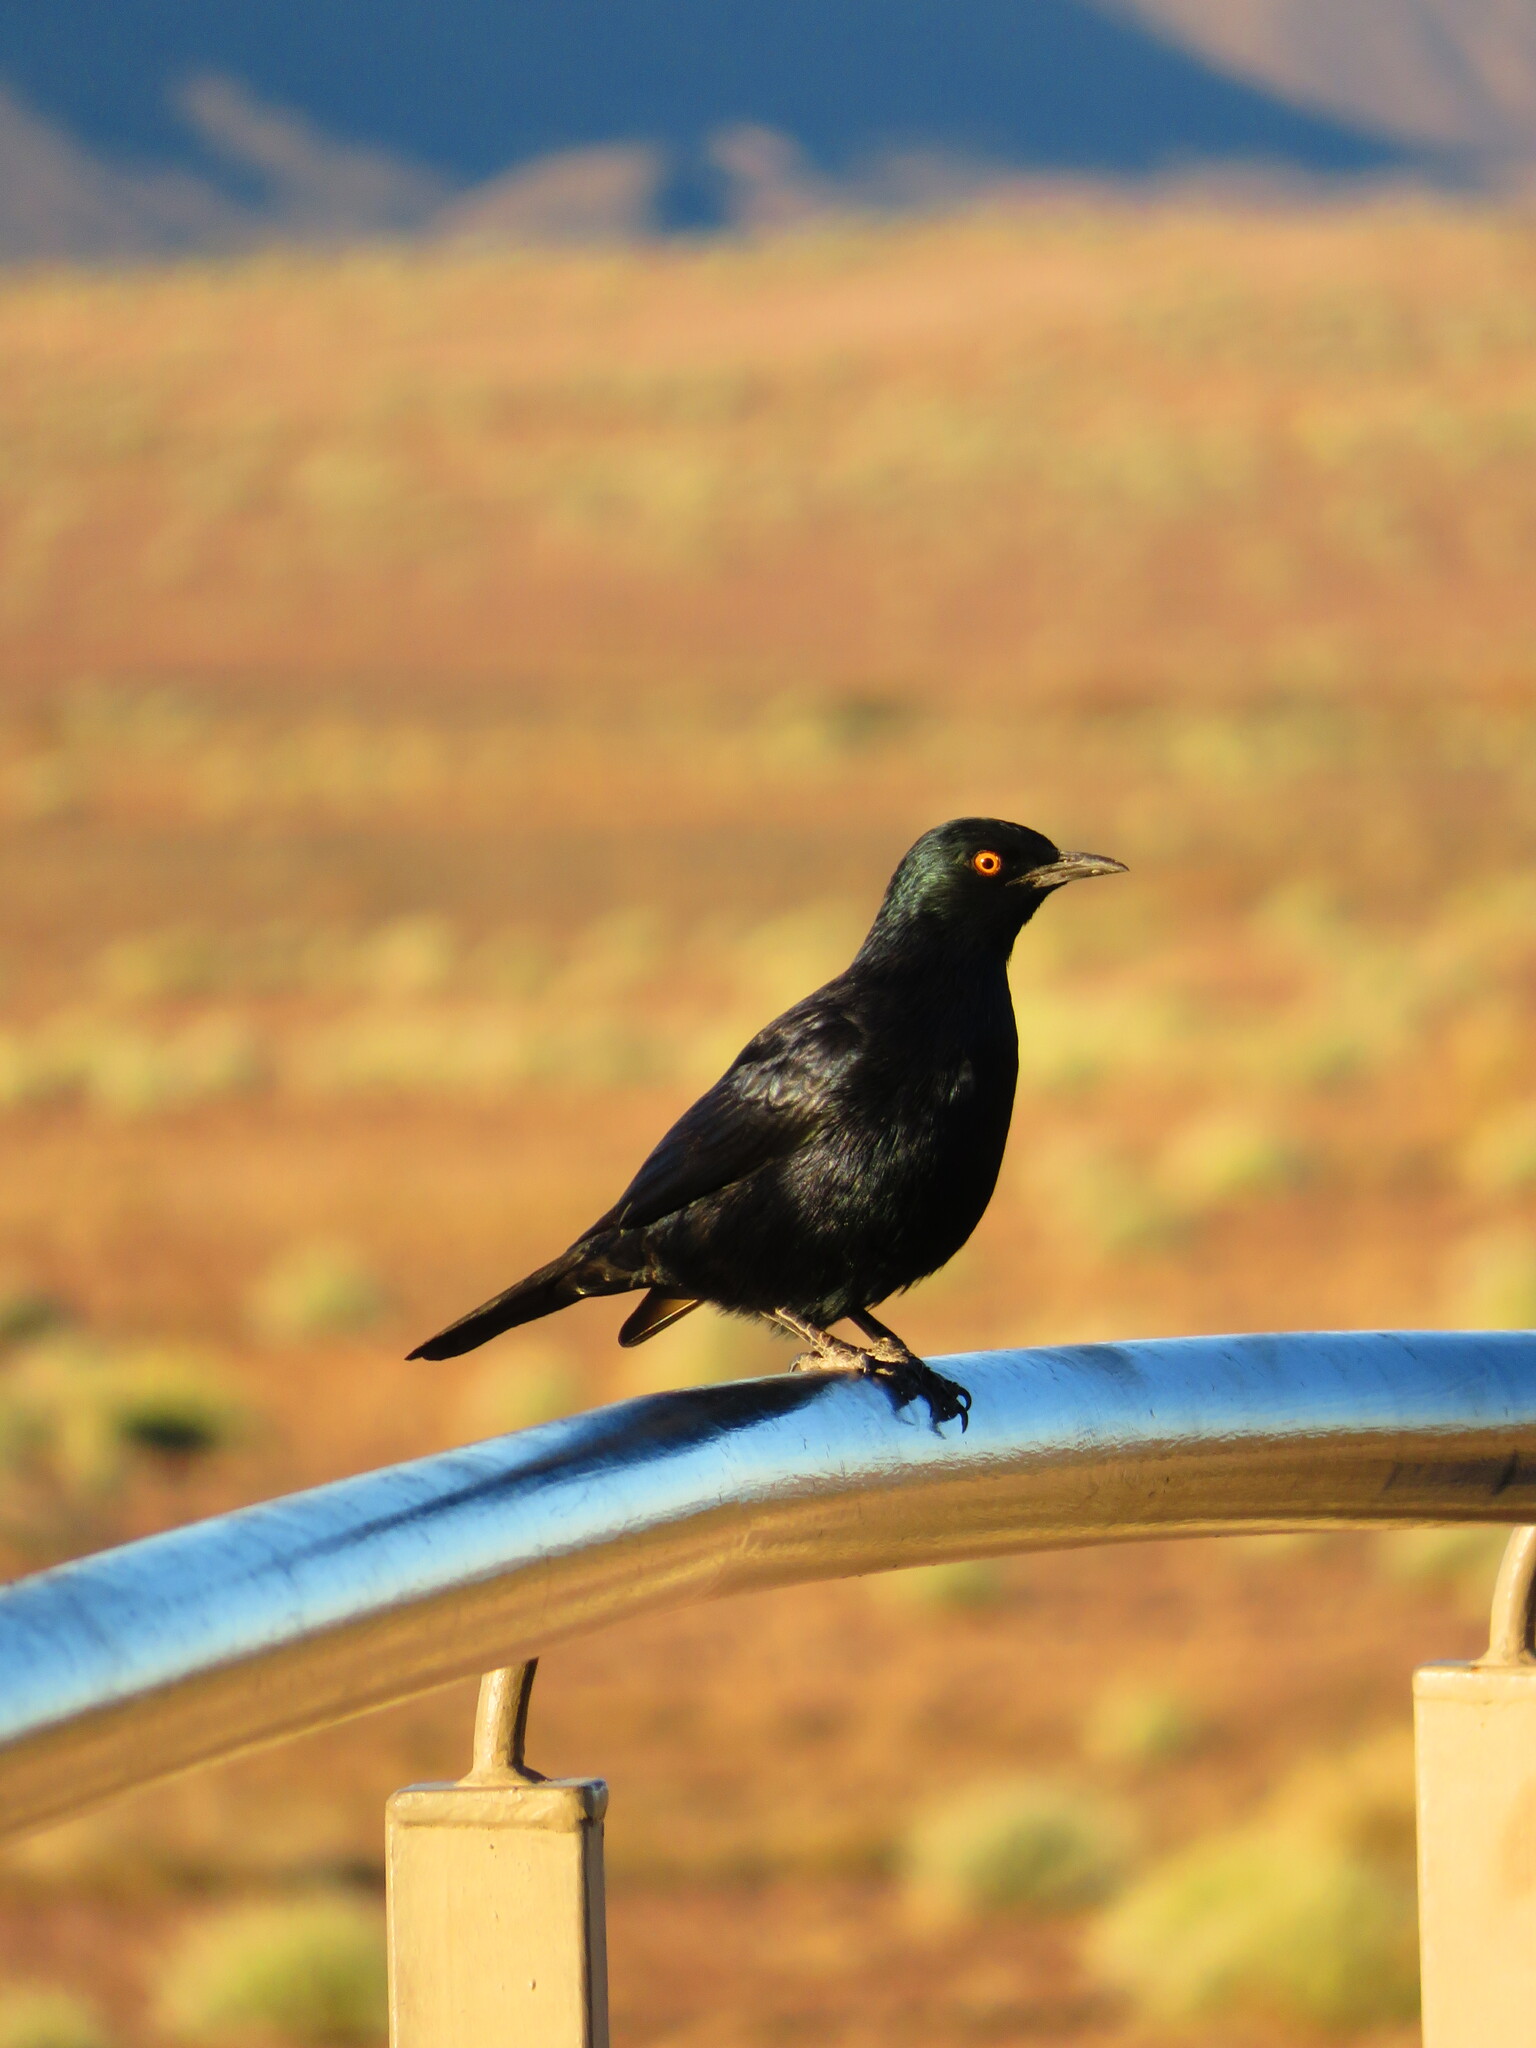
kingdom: Animalia
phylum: Chordata
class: Aves
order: Passeriformes
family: Sturnidae
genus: Onychognathus
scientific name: Onychognathus nabouroup
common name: Pale-winged starling
